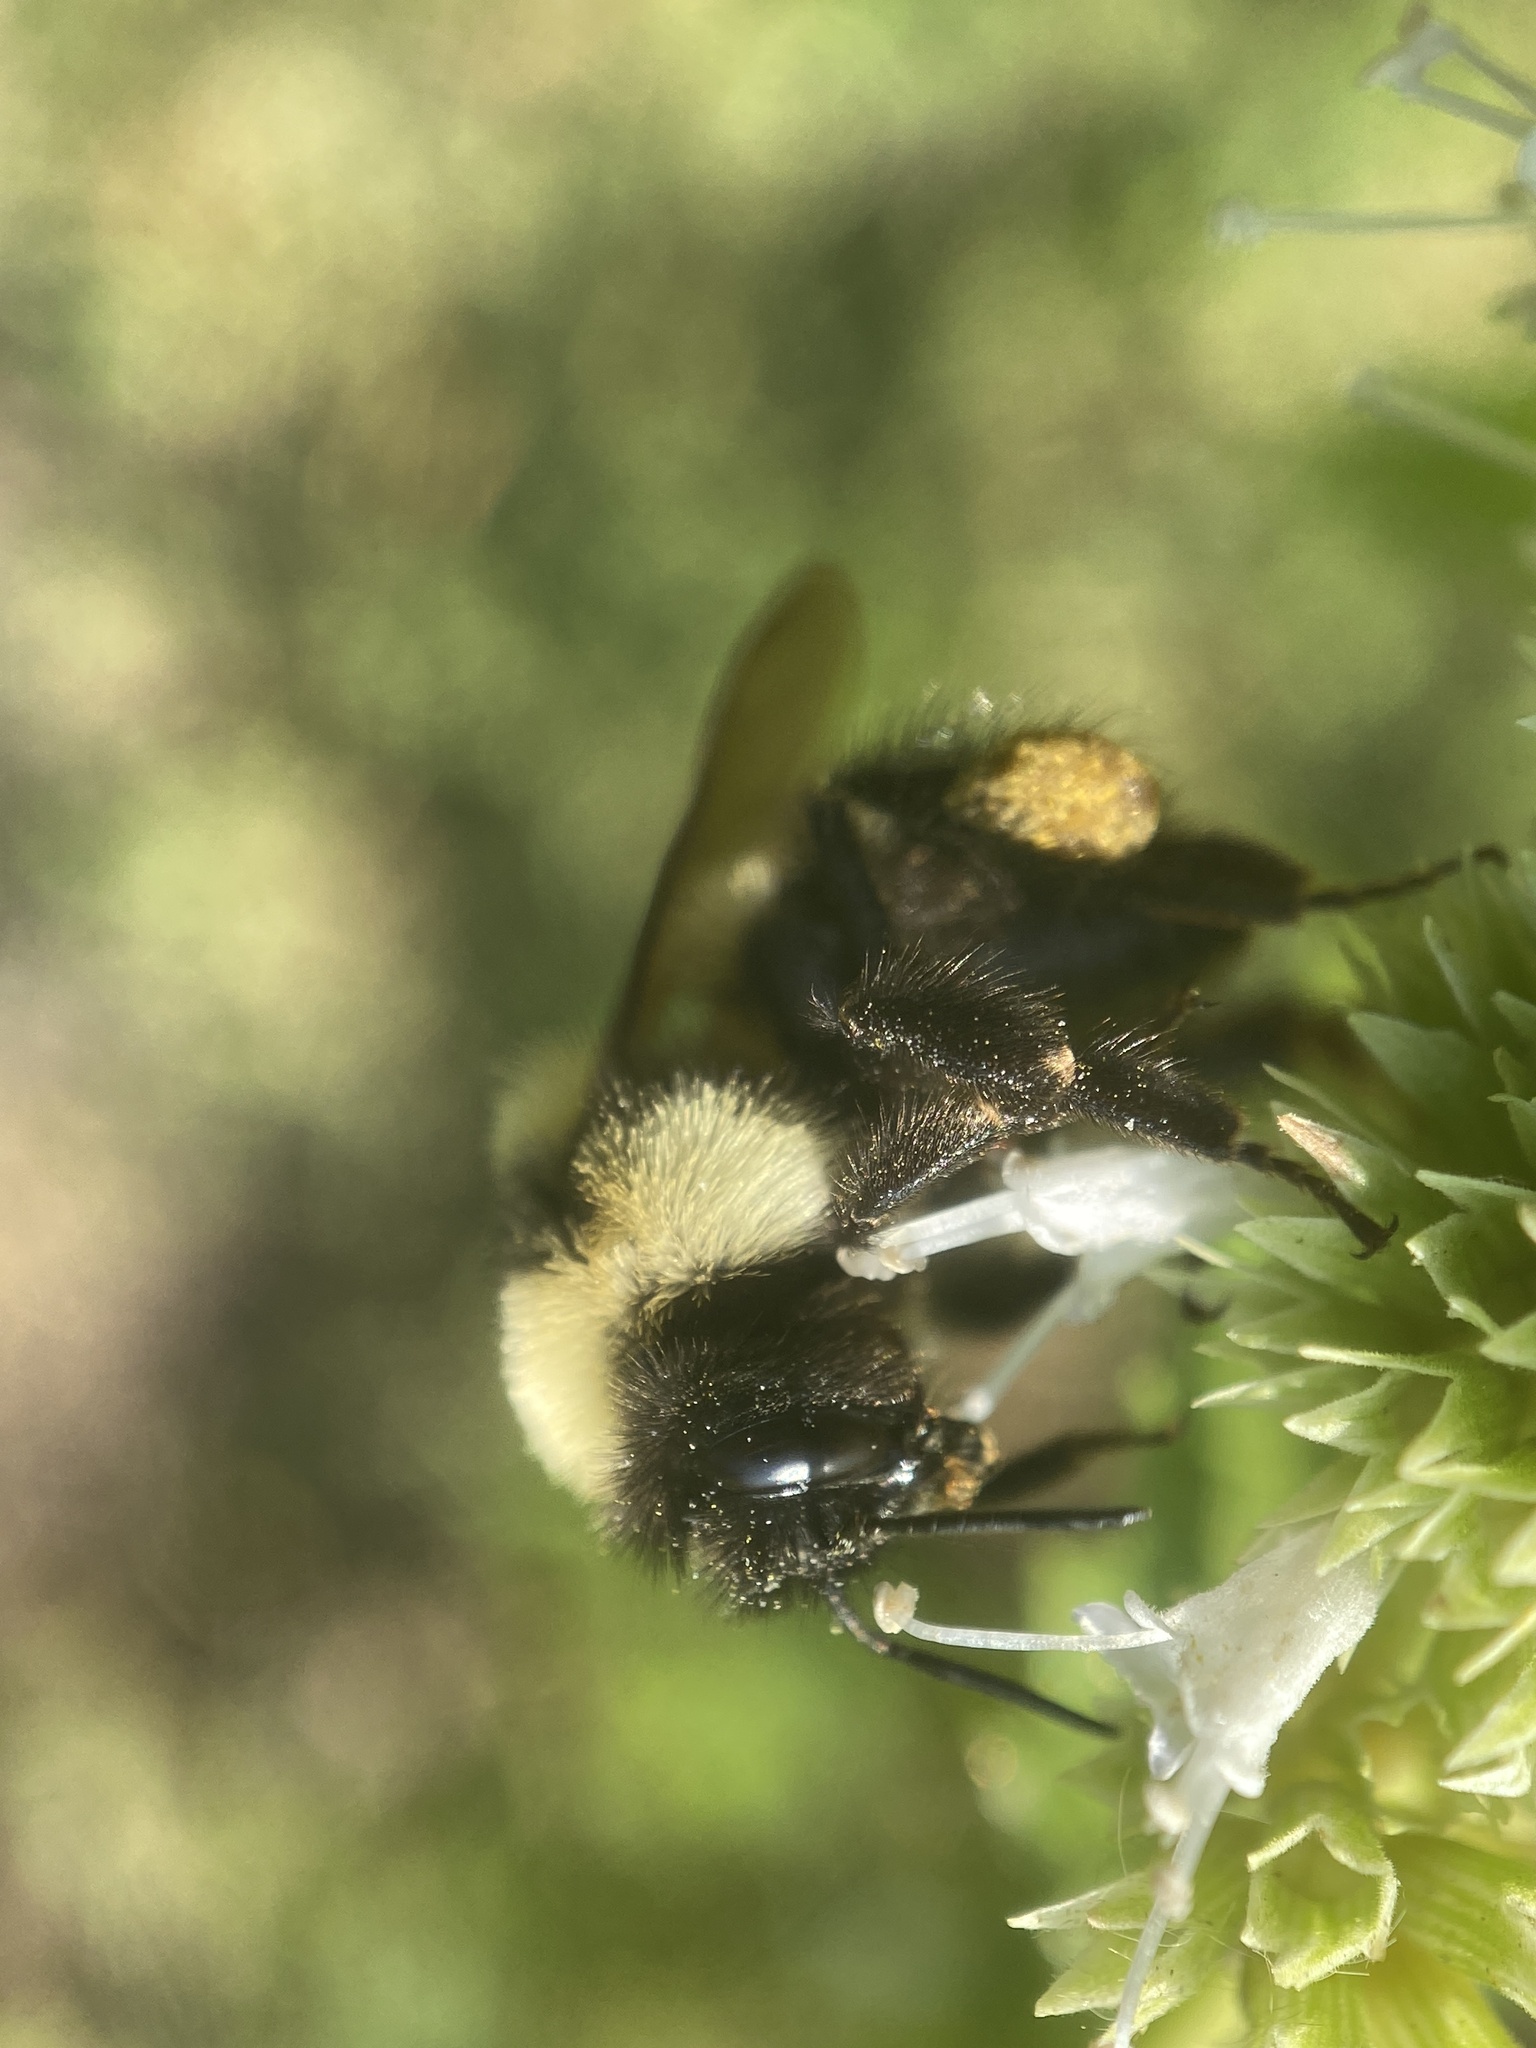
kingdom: Animalia
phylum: Arthropoda
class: Insecta
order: Hymenoptera
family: Apidae
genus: Bombus
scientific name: Bombus affinis
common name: Rusty patched bumble bee
